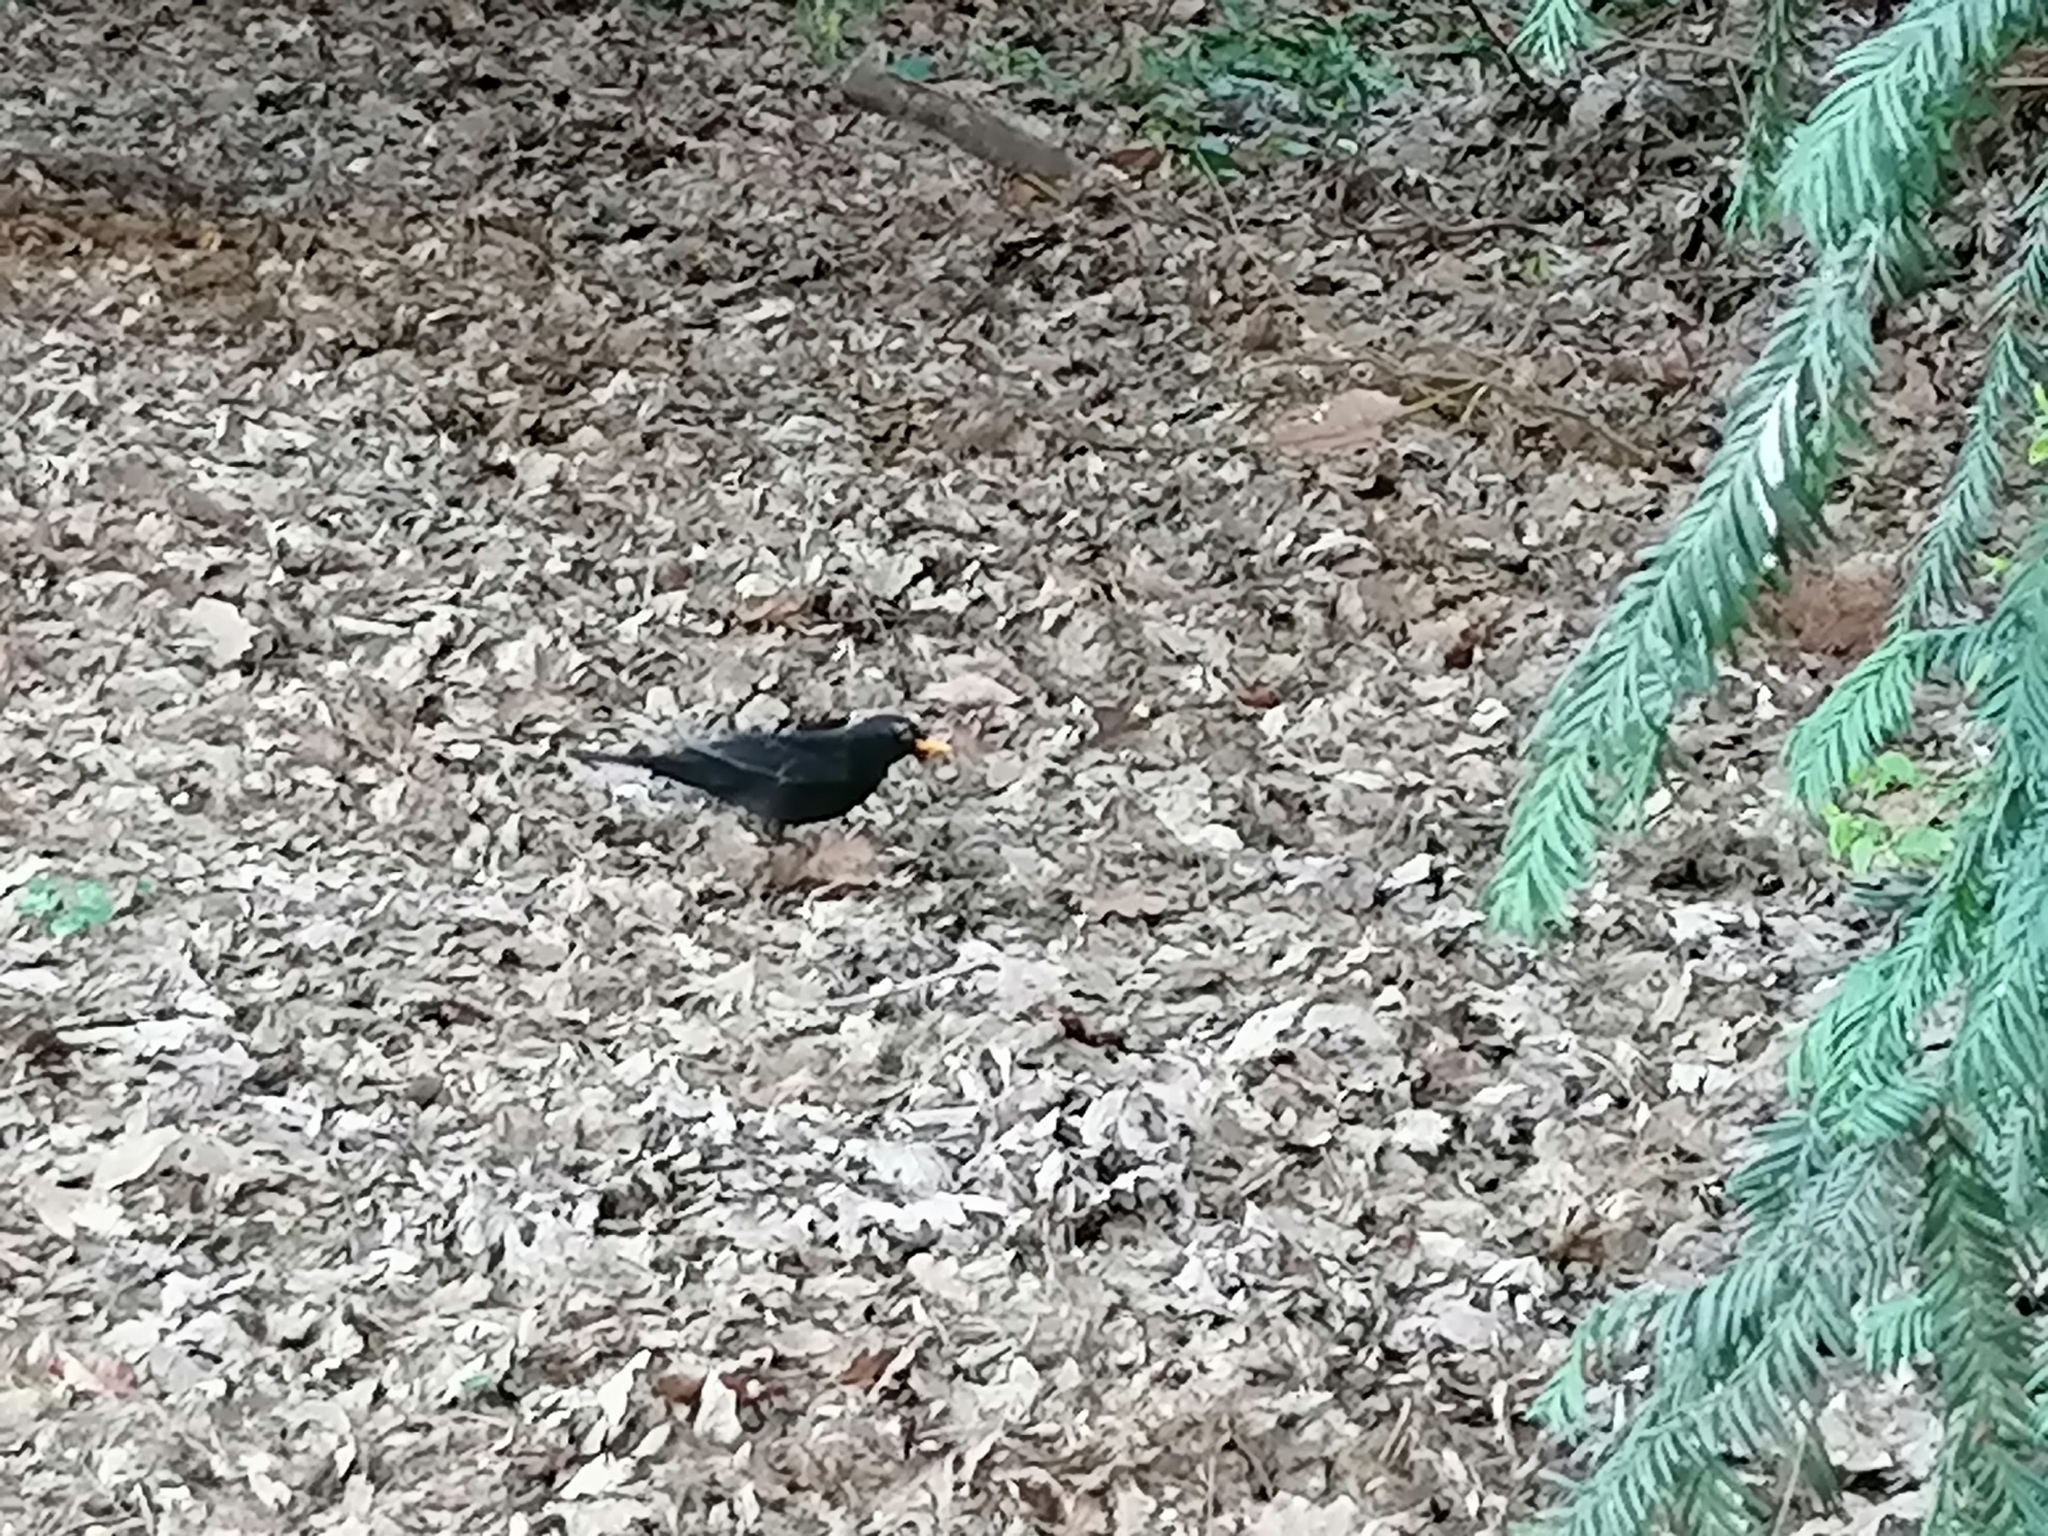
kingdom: Animalia
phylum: Chordata
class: Aves
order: Passeriformes
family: Turdidae
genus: Turdus
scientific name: Turdus merula
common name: Common blackbird
